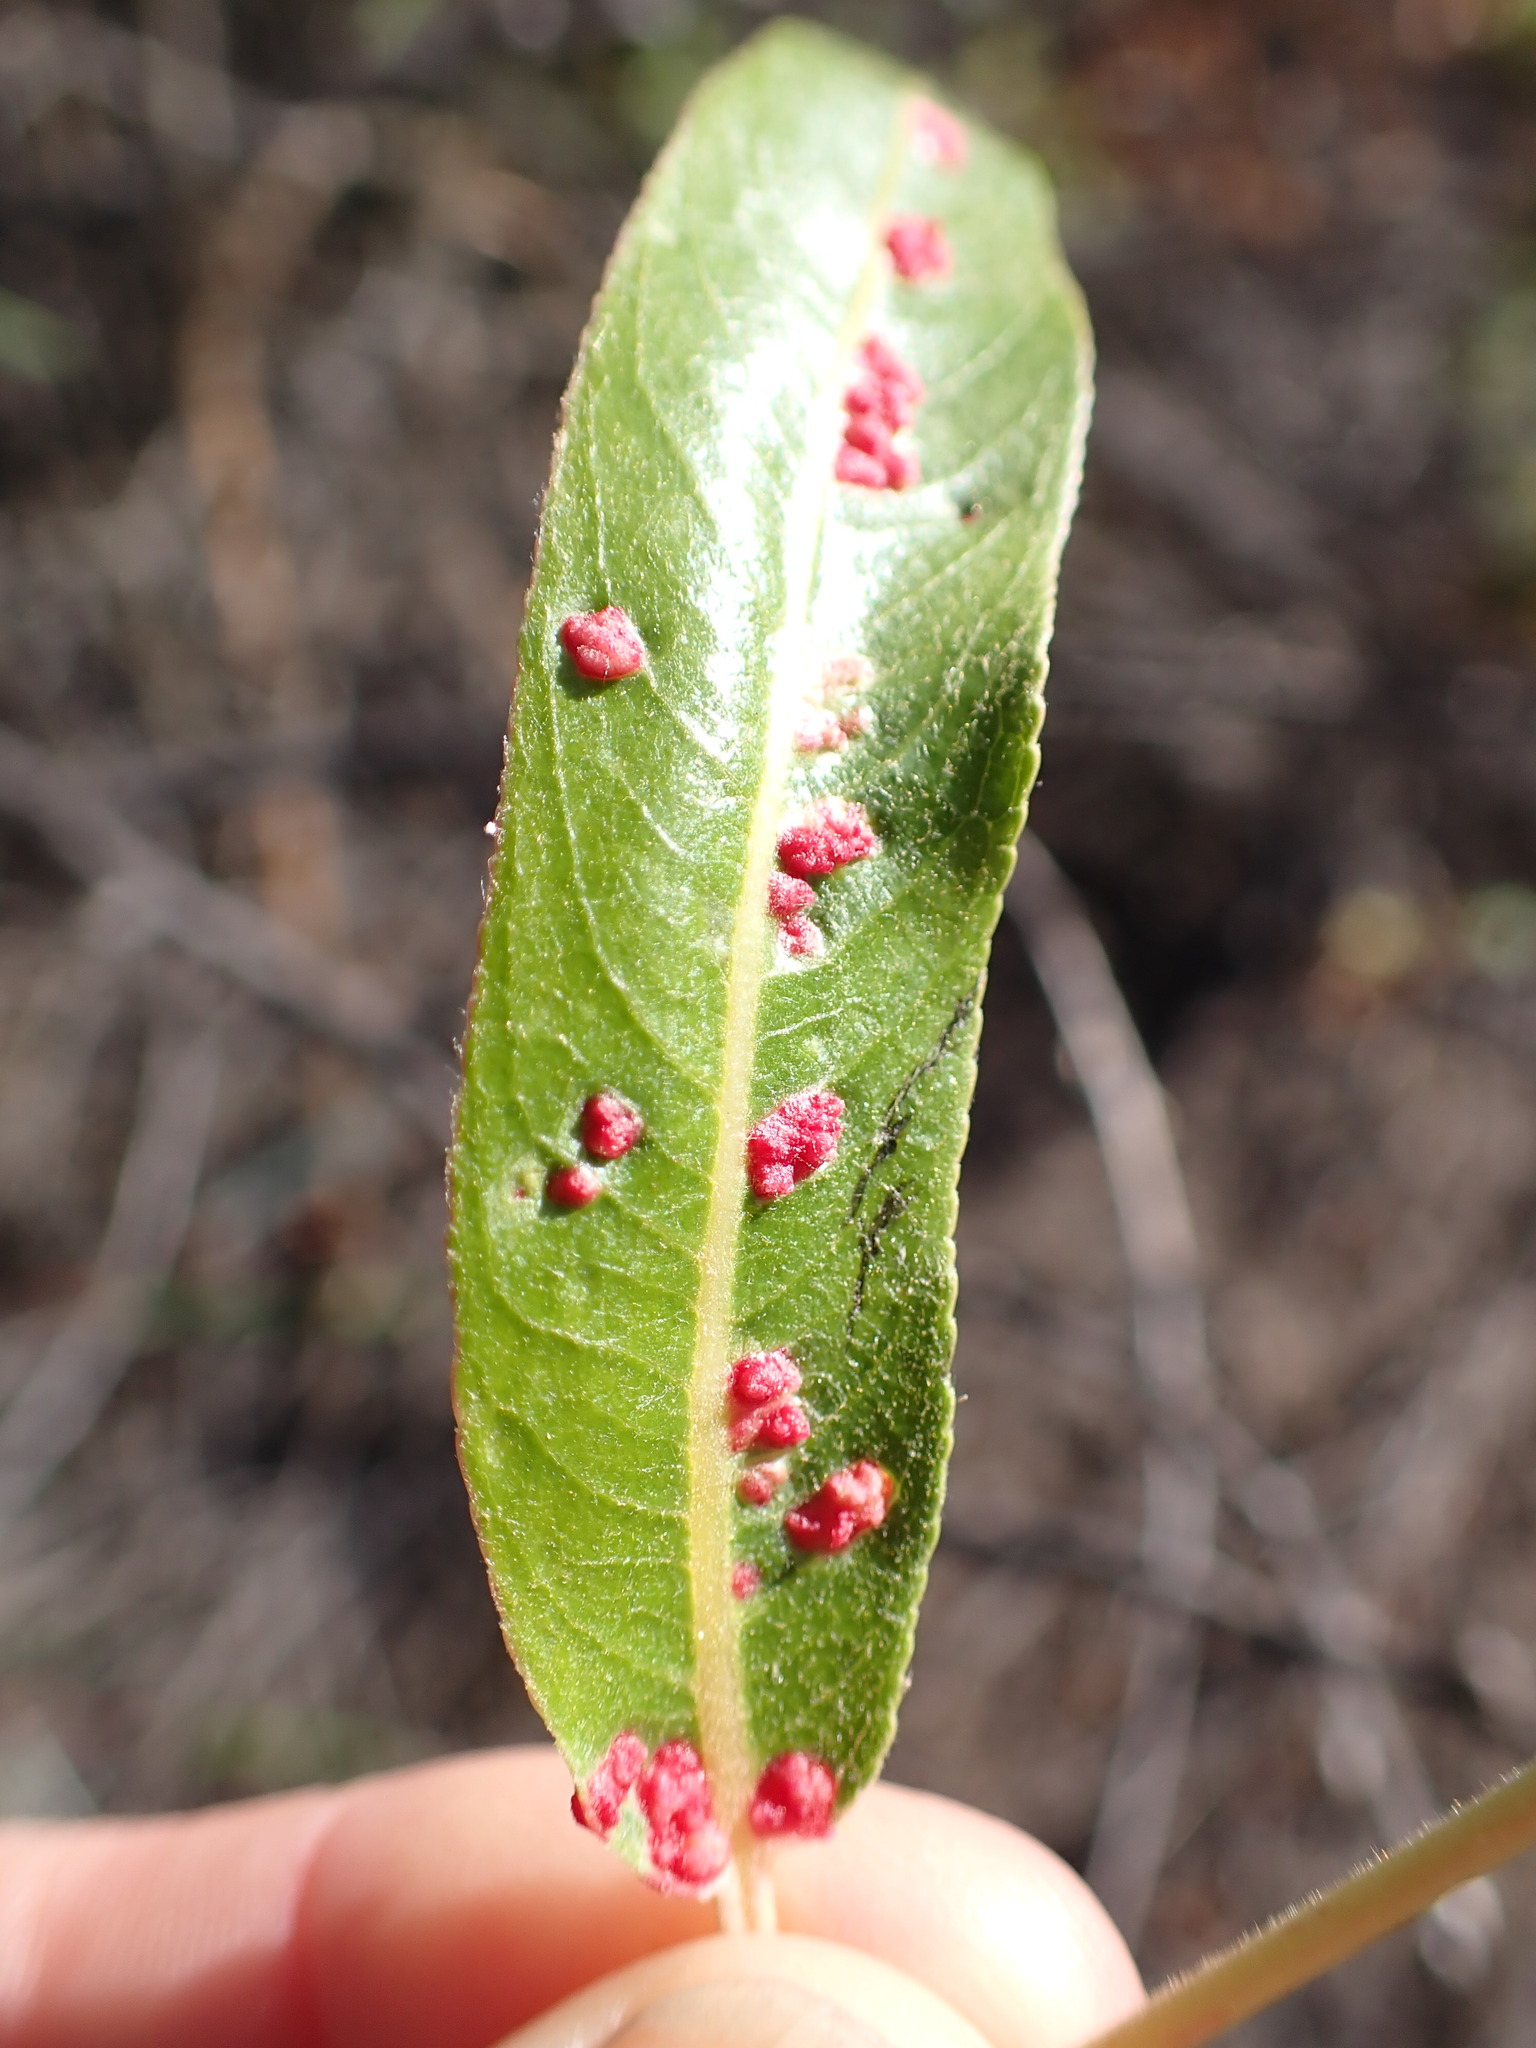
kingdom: Animalia
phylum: Arthropoda
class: Arachnida
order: Trombidiformes
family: Eriophyidae
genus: Aculus
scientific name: Aculus tetanothrix
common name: Willow bead gall mite
